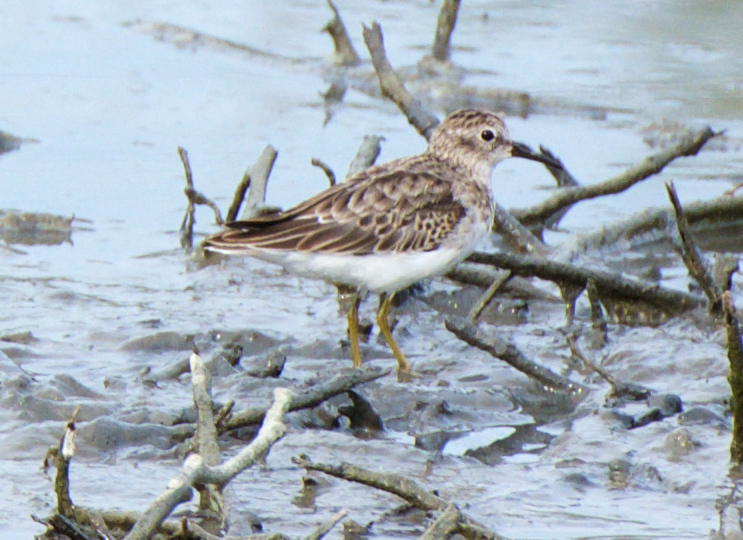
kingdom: Animalia
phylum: Chordata
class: Aves
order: Charadriiformes
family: Scolopacidae
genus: Calidris
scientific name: Calidris minutilla
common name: Least sandpiper
